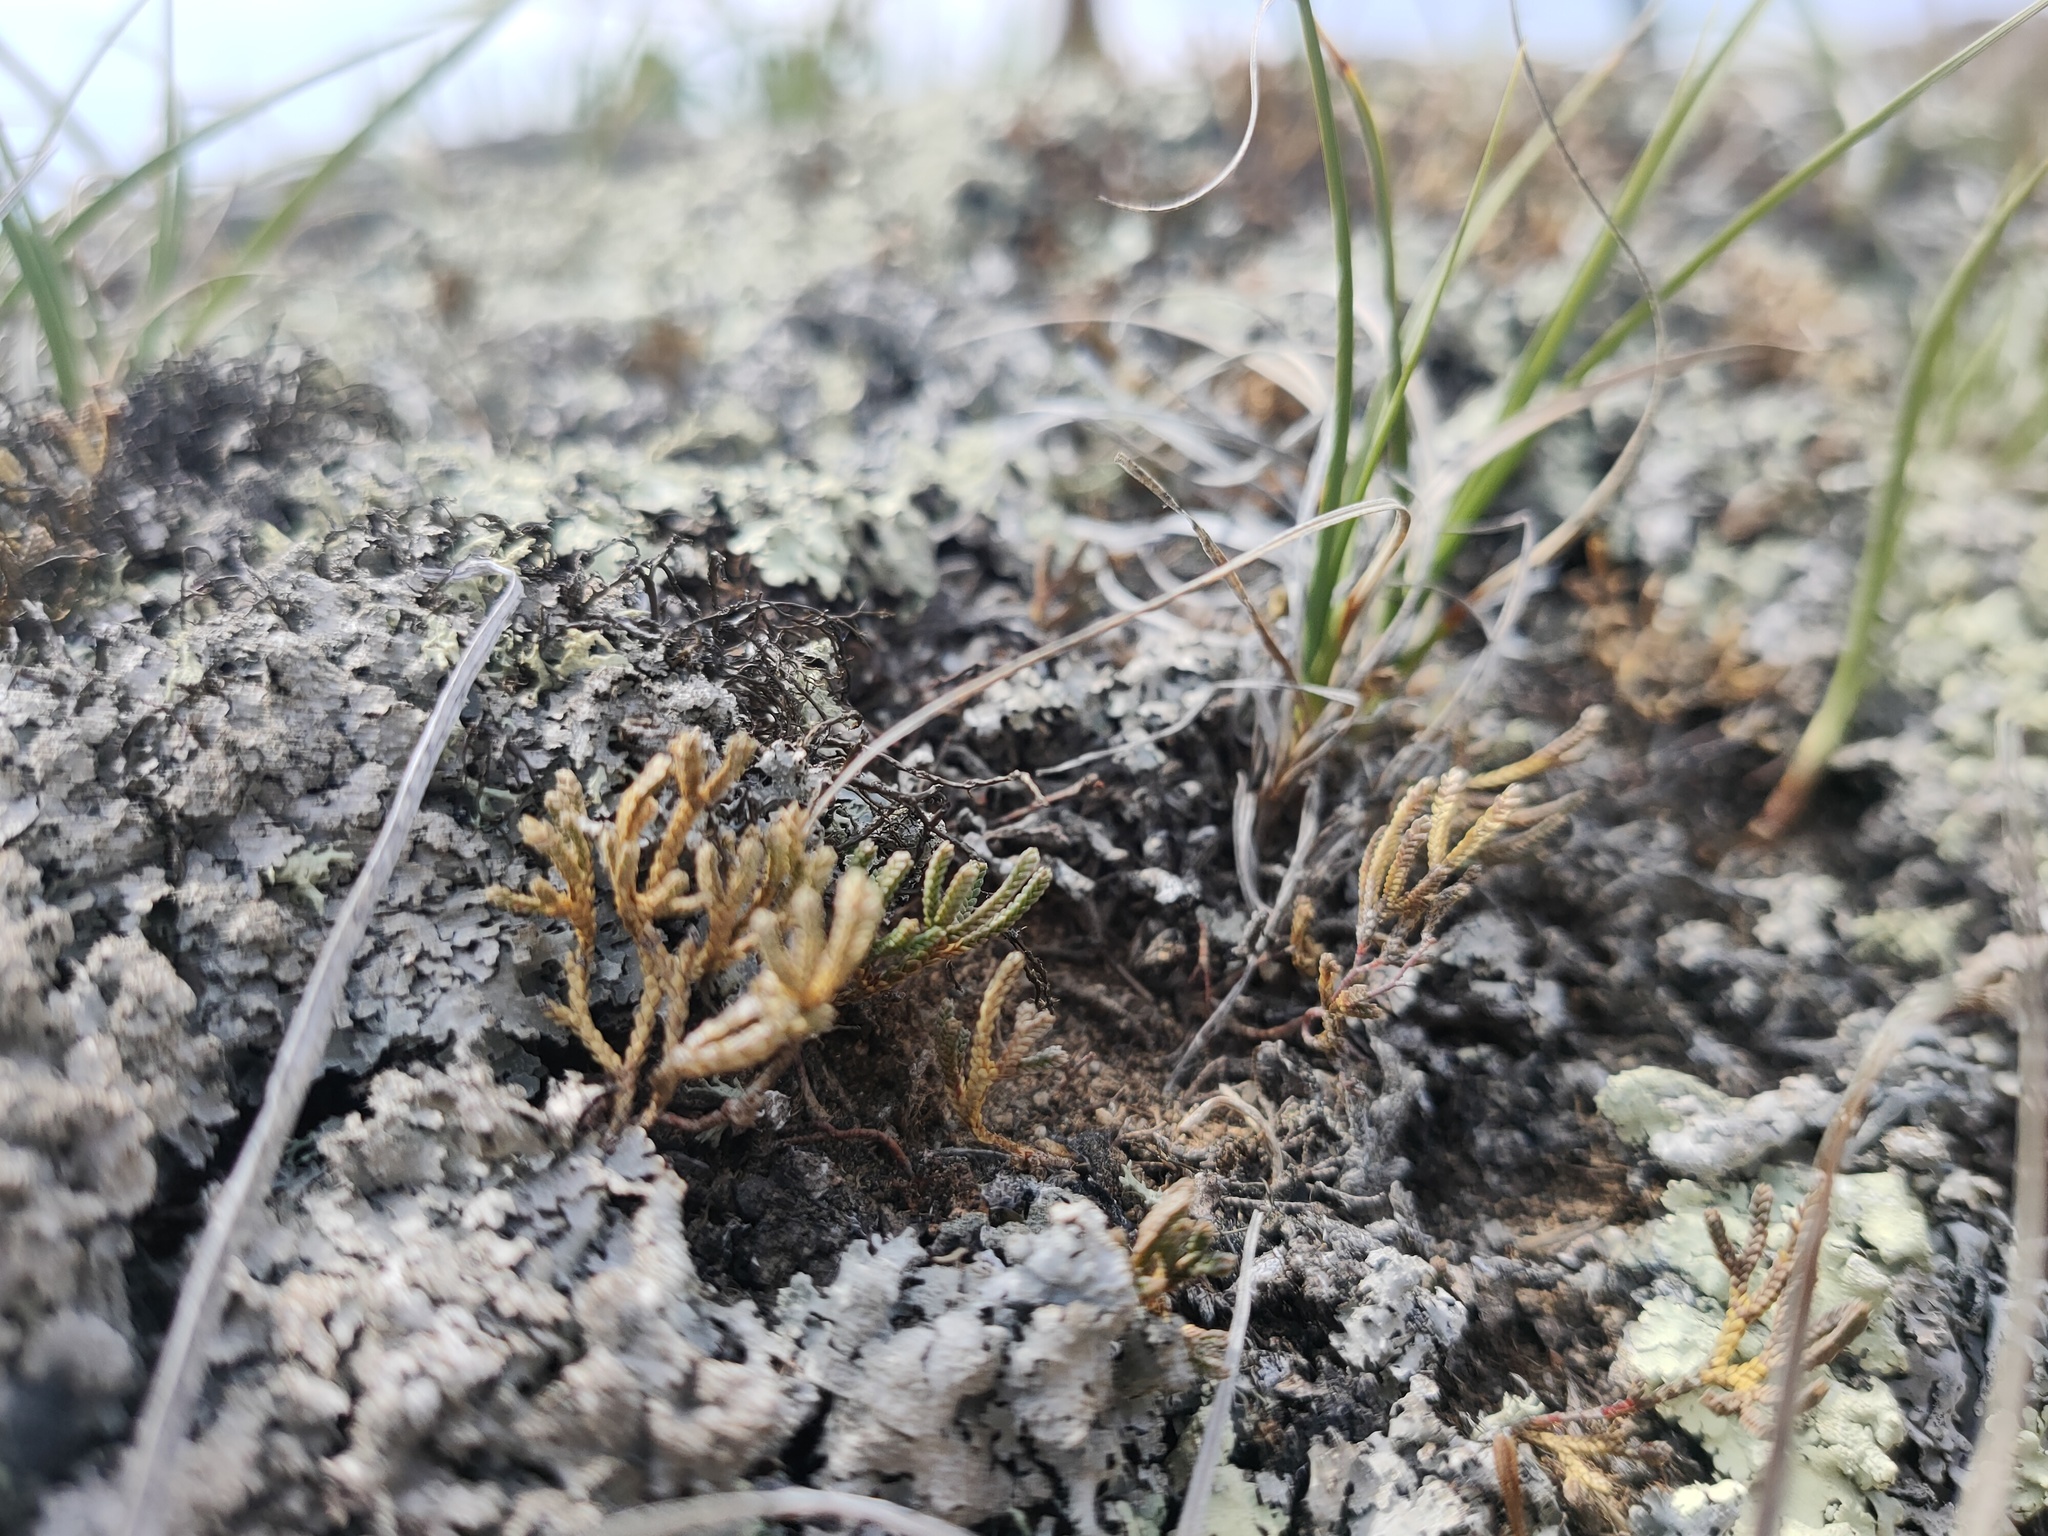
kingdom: Plantae
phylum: Tracheophyta
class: Lycopodiopsida
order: Selaginellales
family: Selaginellaceae
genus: Selaginella
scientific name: Selaginella sanguinolenta
